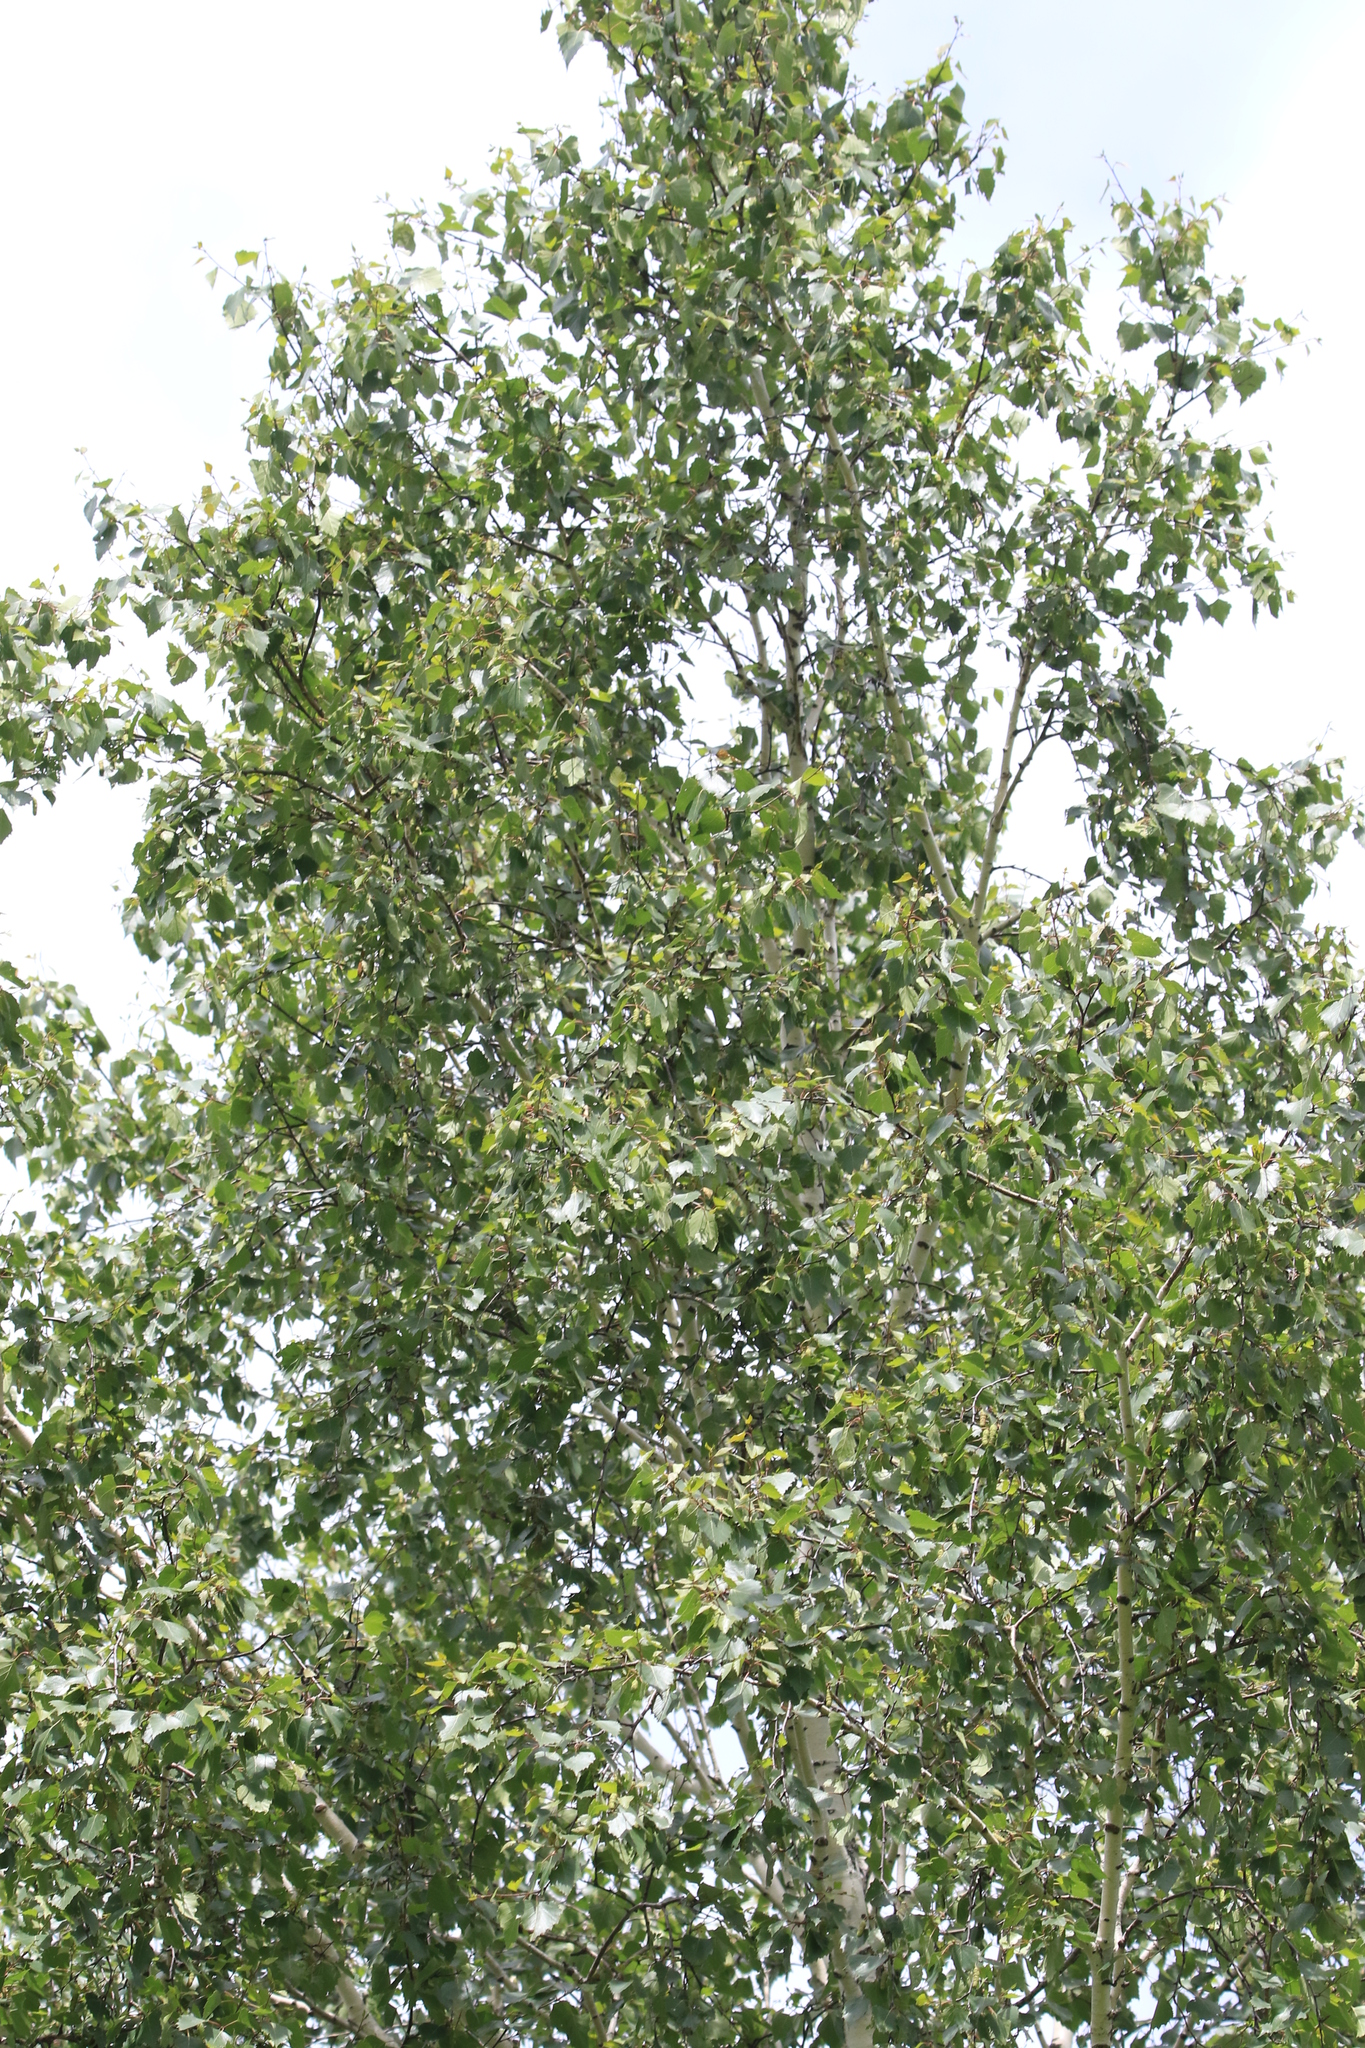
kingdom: Plantae
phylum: Tracheophyta
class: Magnoliopsida
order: Fagales
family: Betulaceae
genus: Betula
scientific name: Betula pendula
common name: Silver birch
